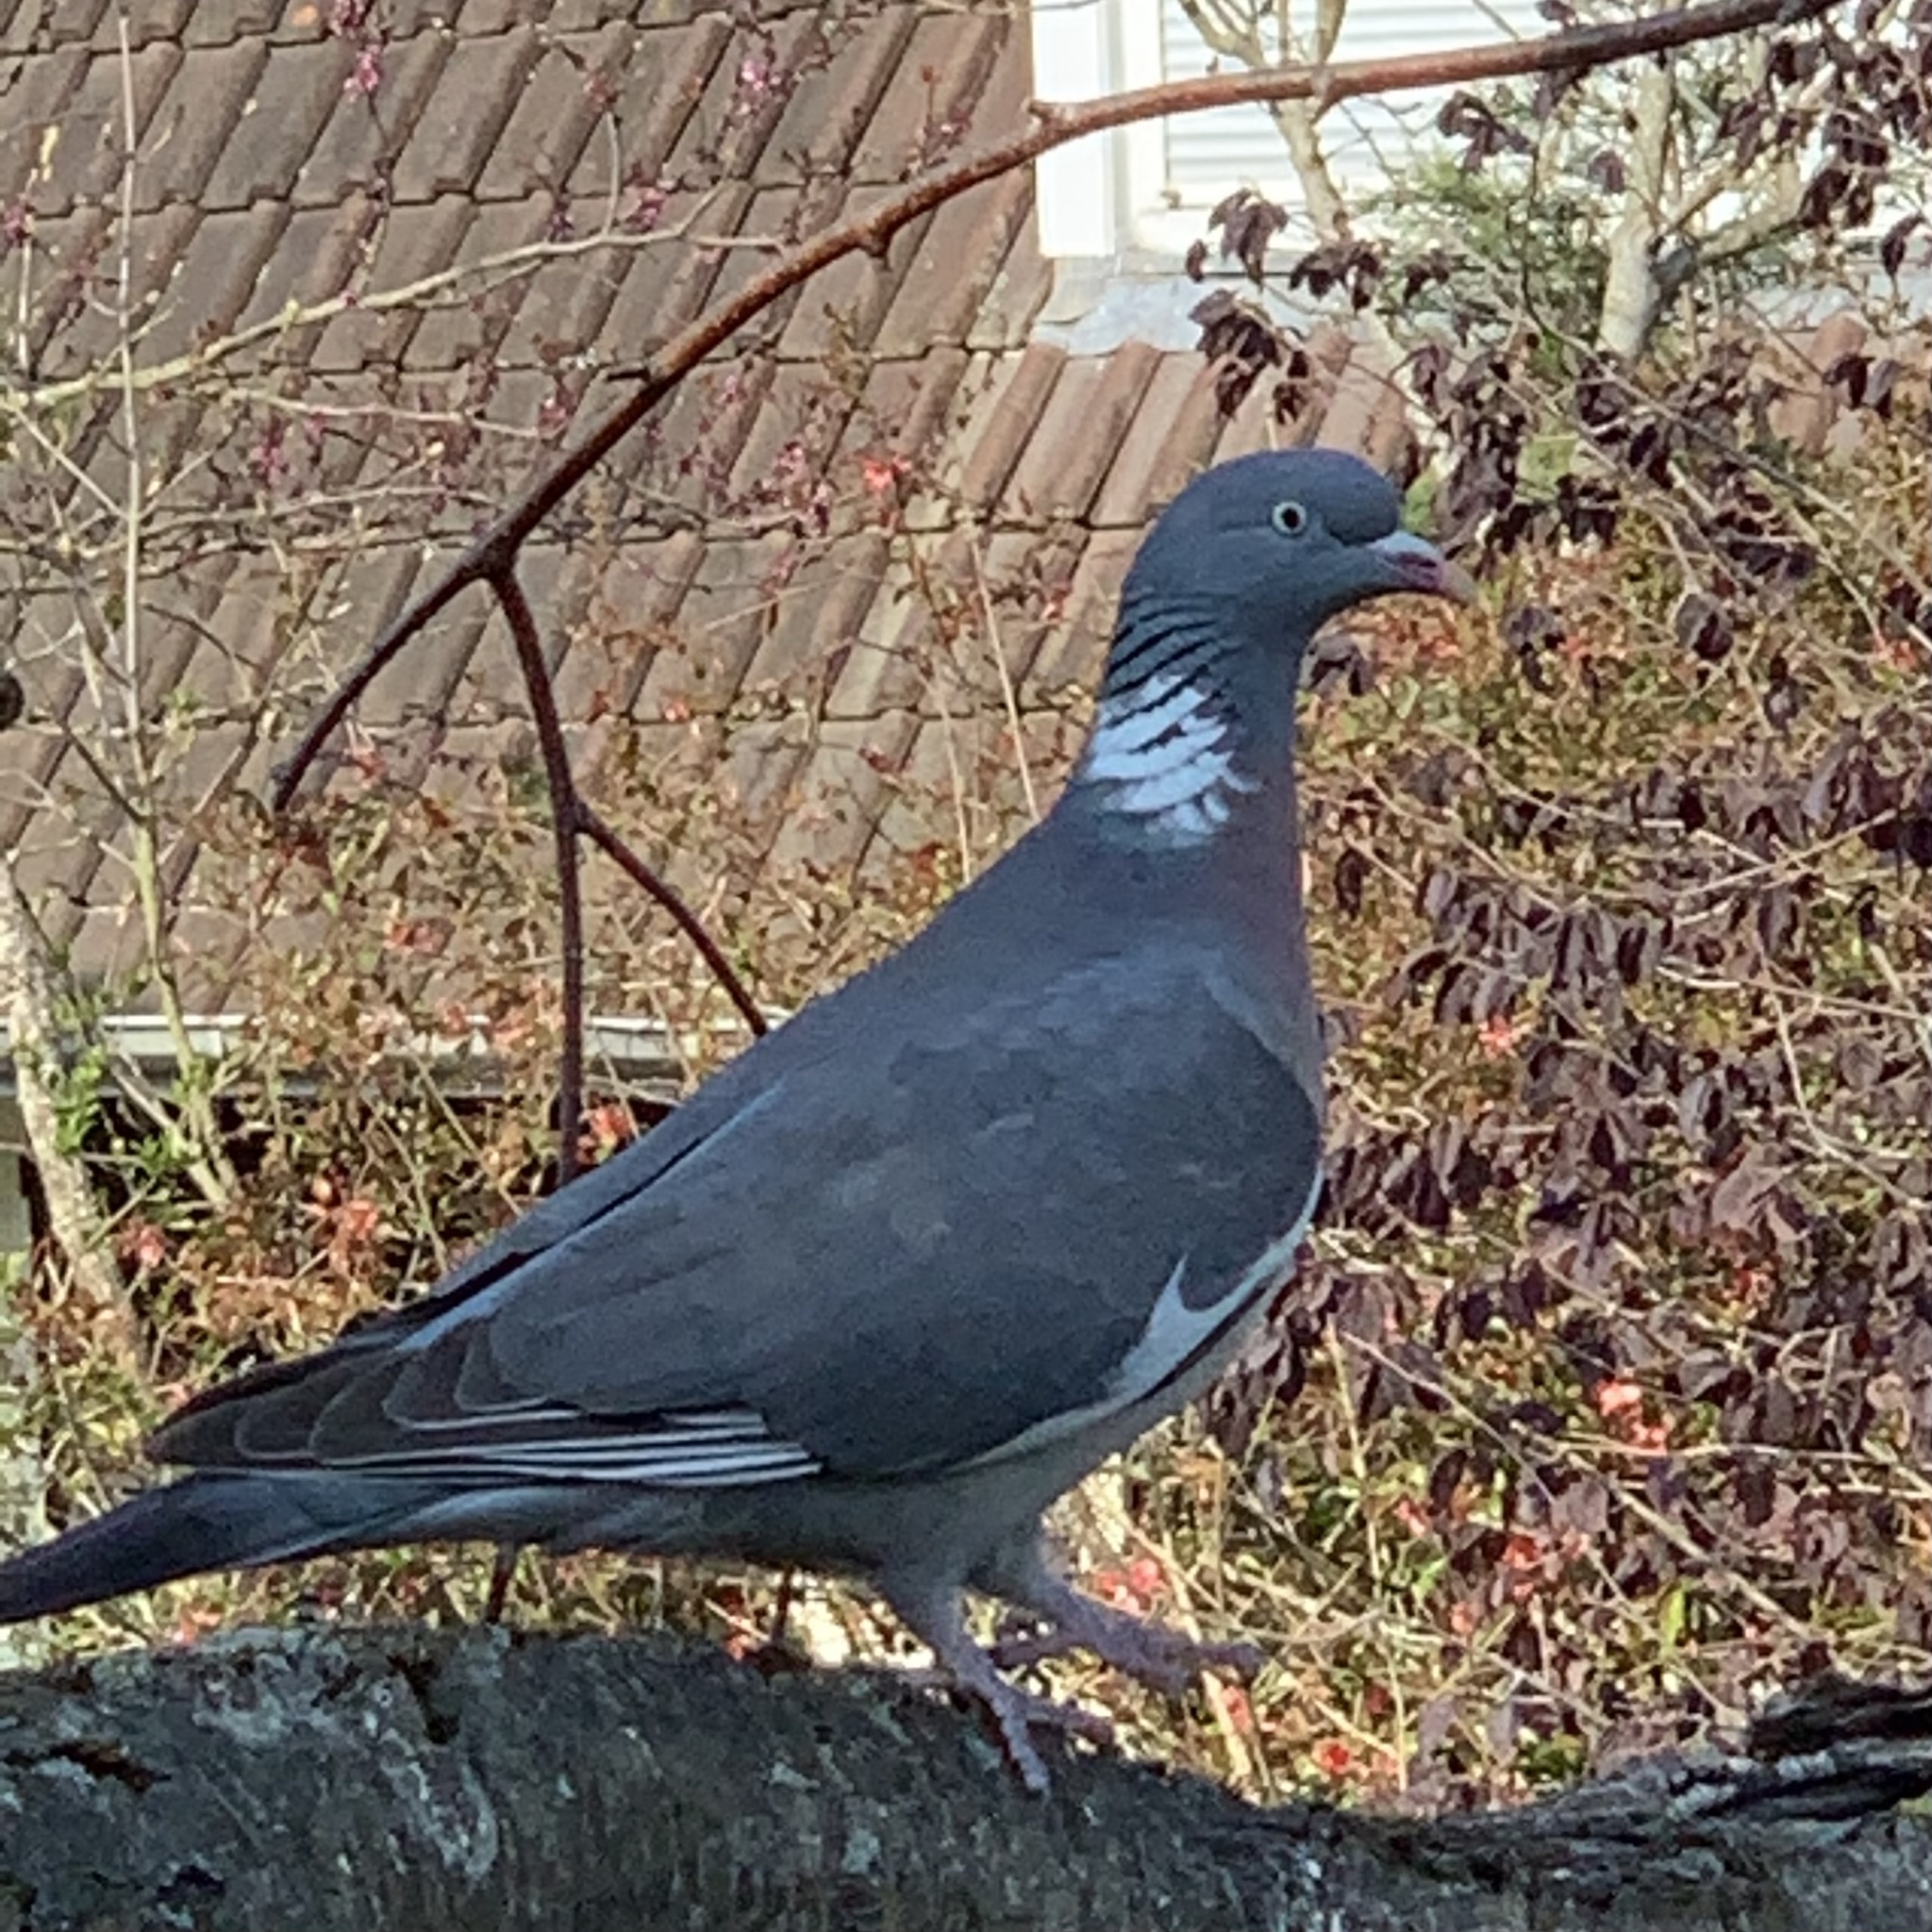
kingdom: Animalia
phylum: Chordata
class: Aves
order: Columbiformes
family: Columbidae
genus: Columba
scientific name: Columba palumbus
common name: Common wood pigeon
